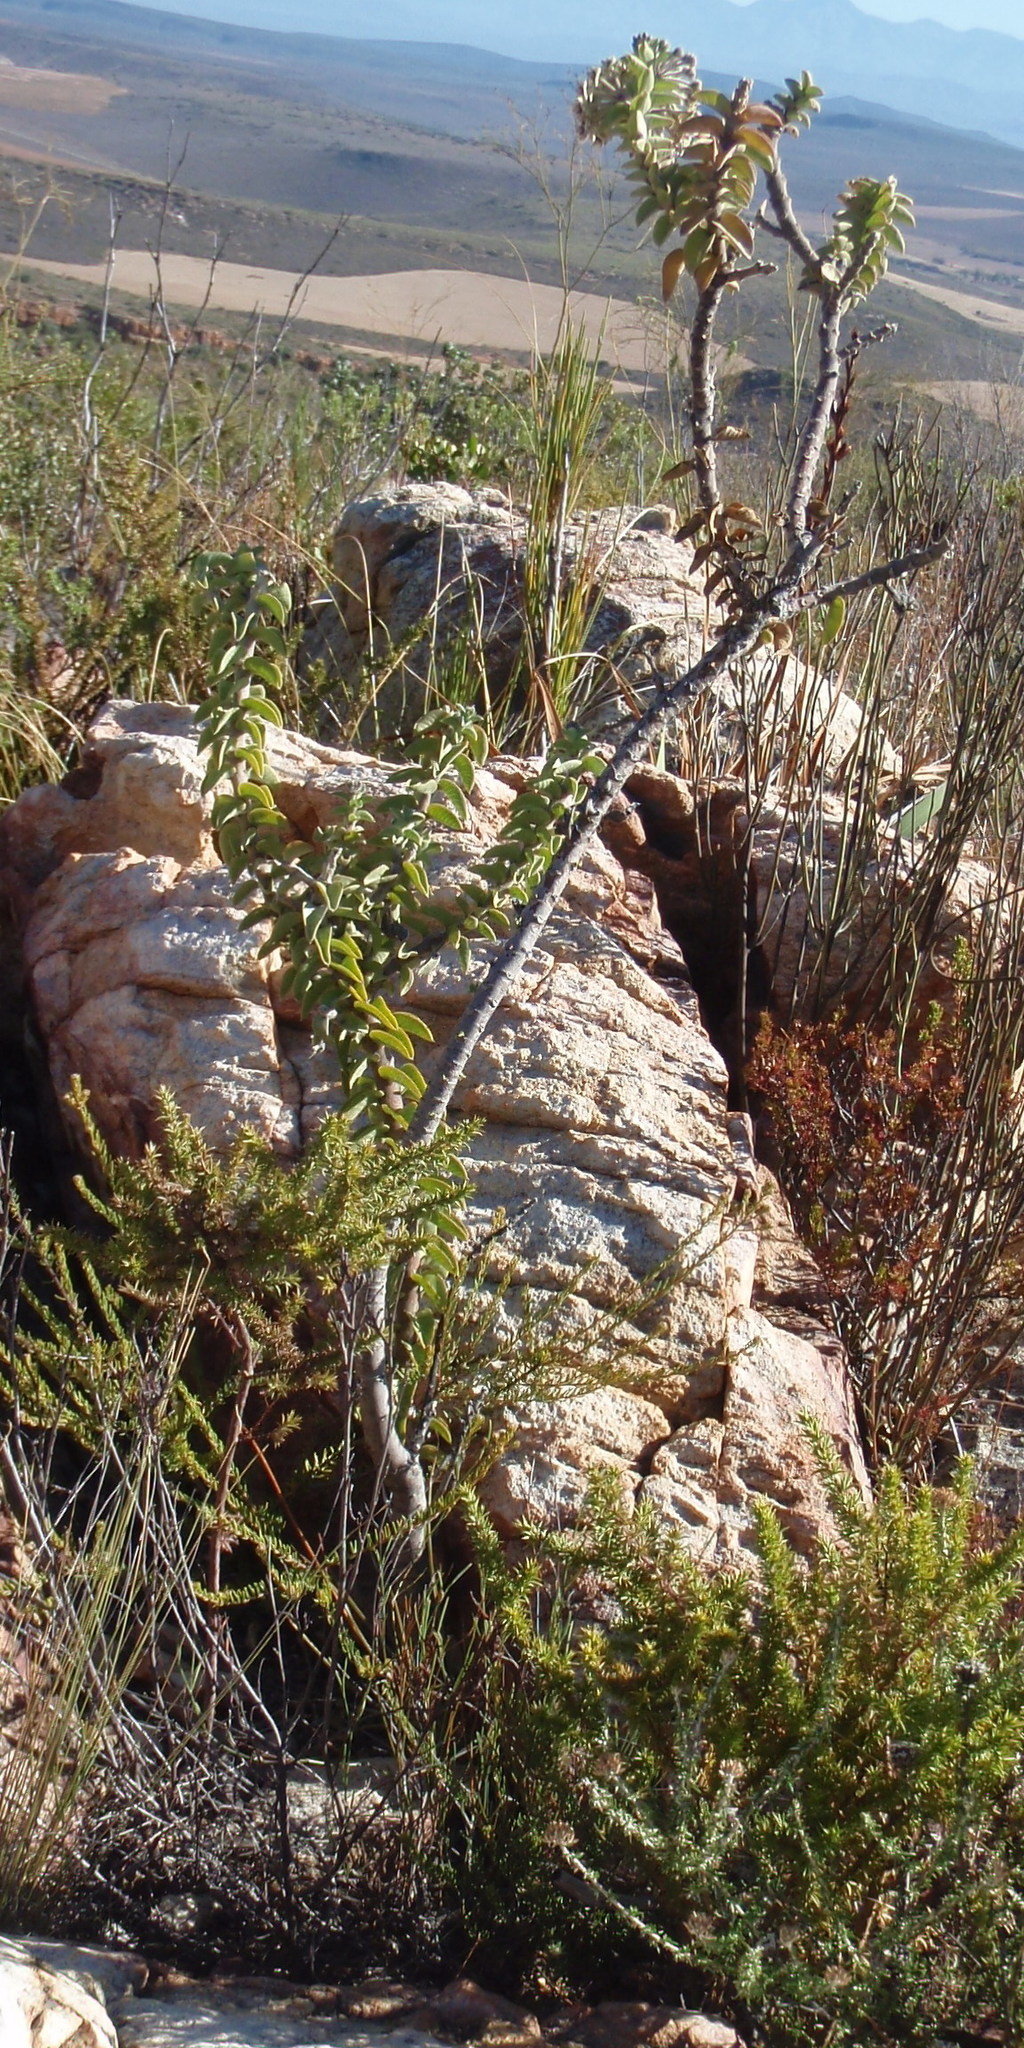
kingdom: Plantae
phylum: Tracheophyta
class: Magnoliopsida
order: Gentianales
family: Apocynaceae
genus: Gomphocarpus
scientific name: Gomphocarpus cancellatus
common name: Wild cotton
